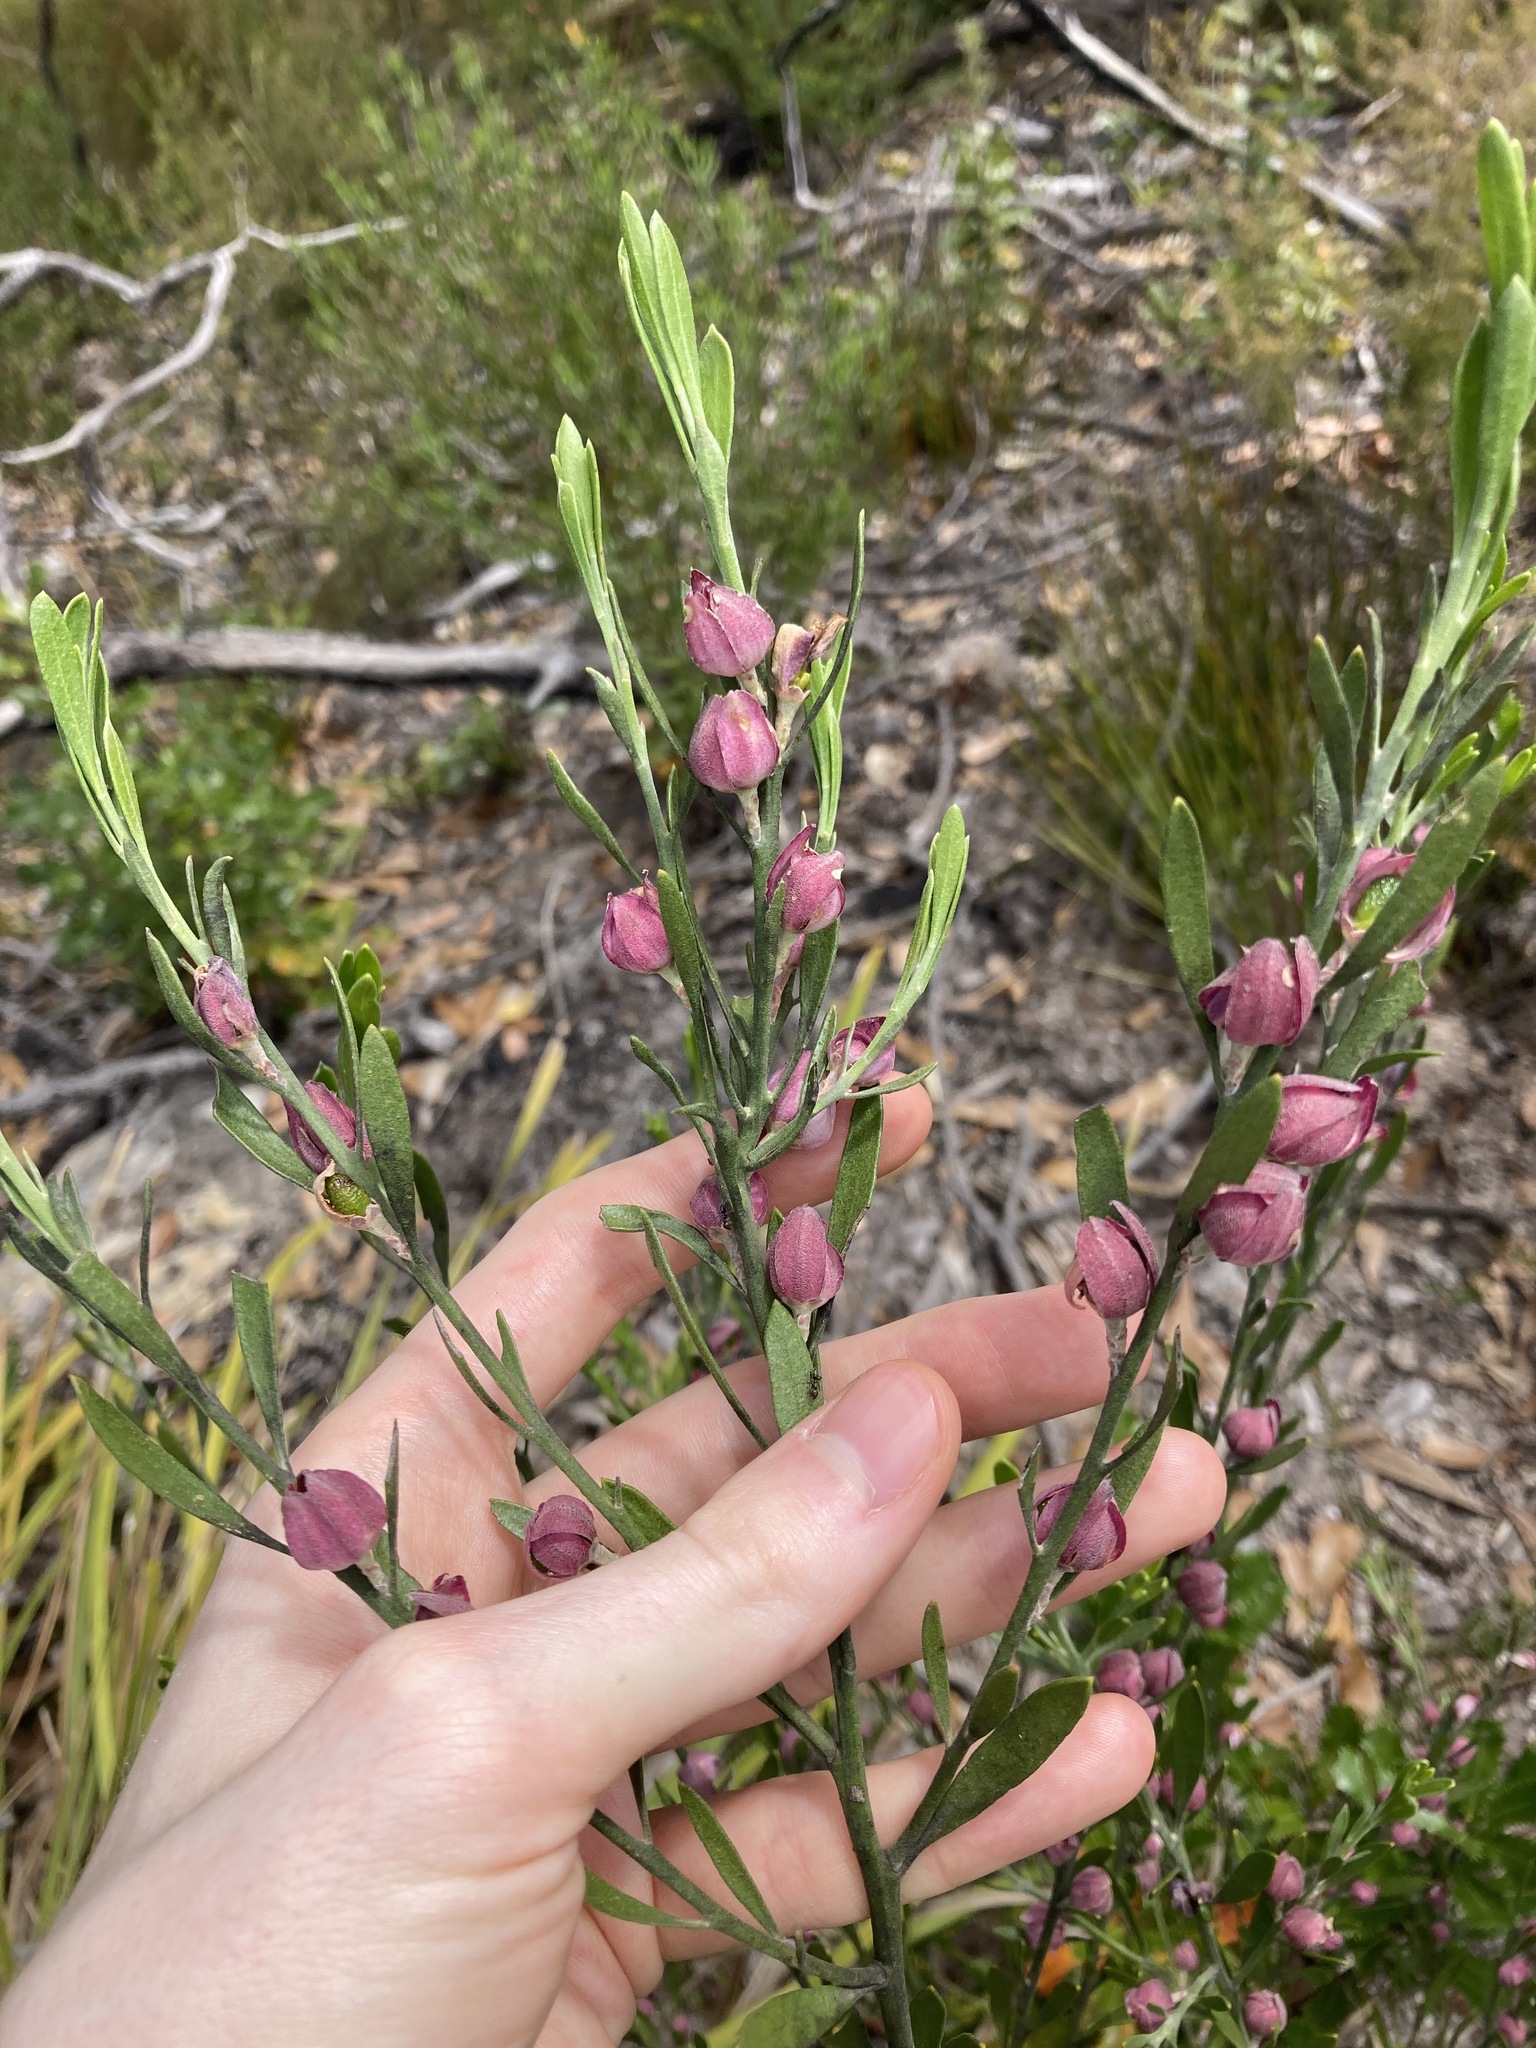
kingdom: Plantae
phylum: Tracheophyta
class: Magnoliopsida
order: Sapindales
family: Rutaceae
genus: Eriostemon
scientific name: Eriostemon australasius
